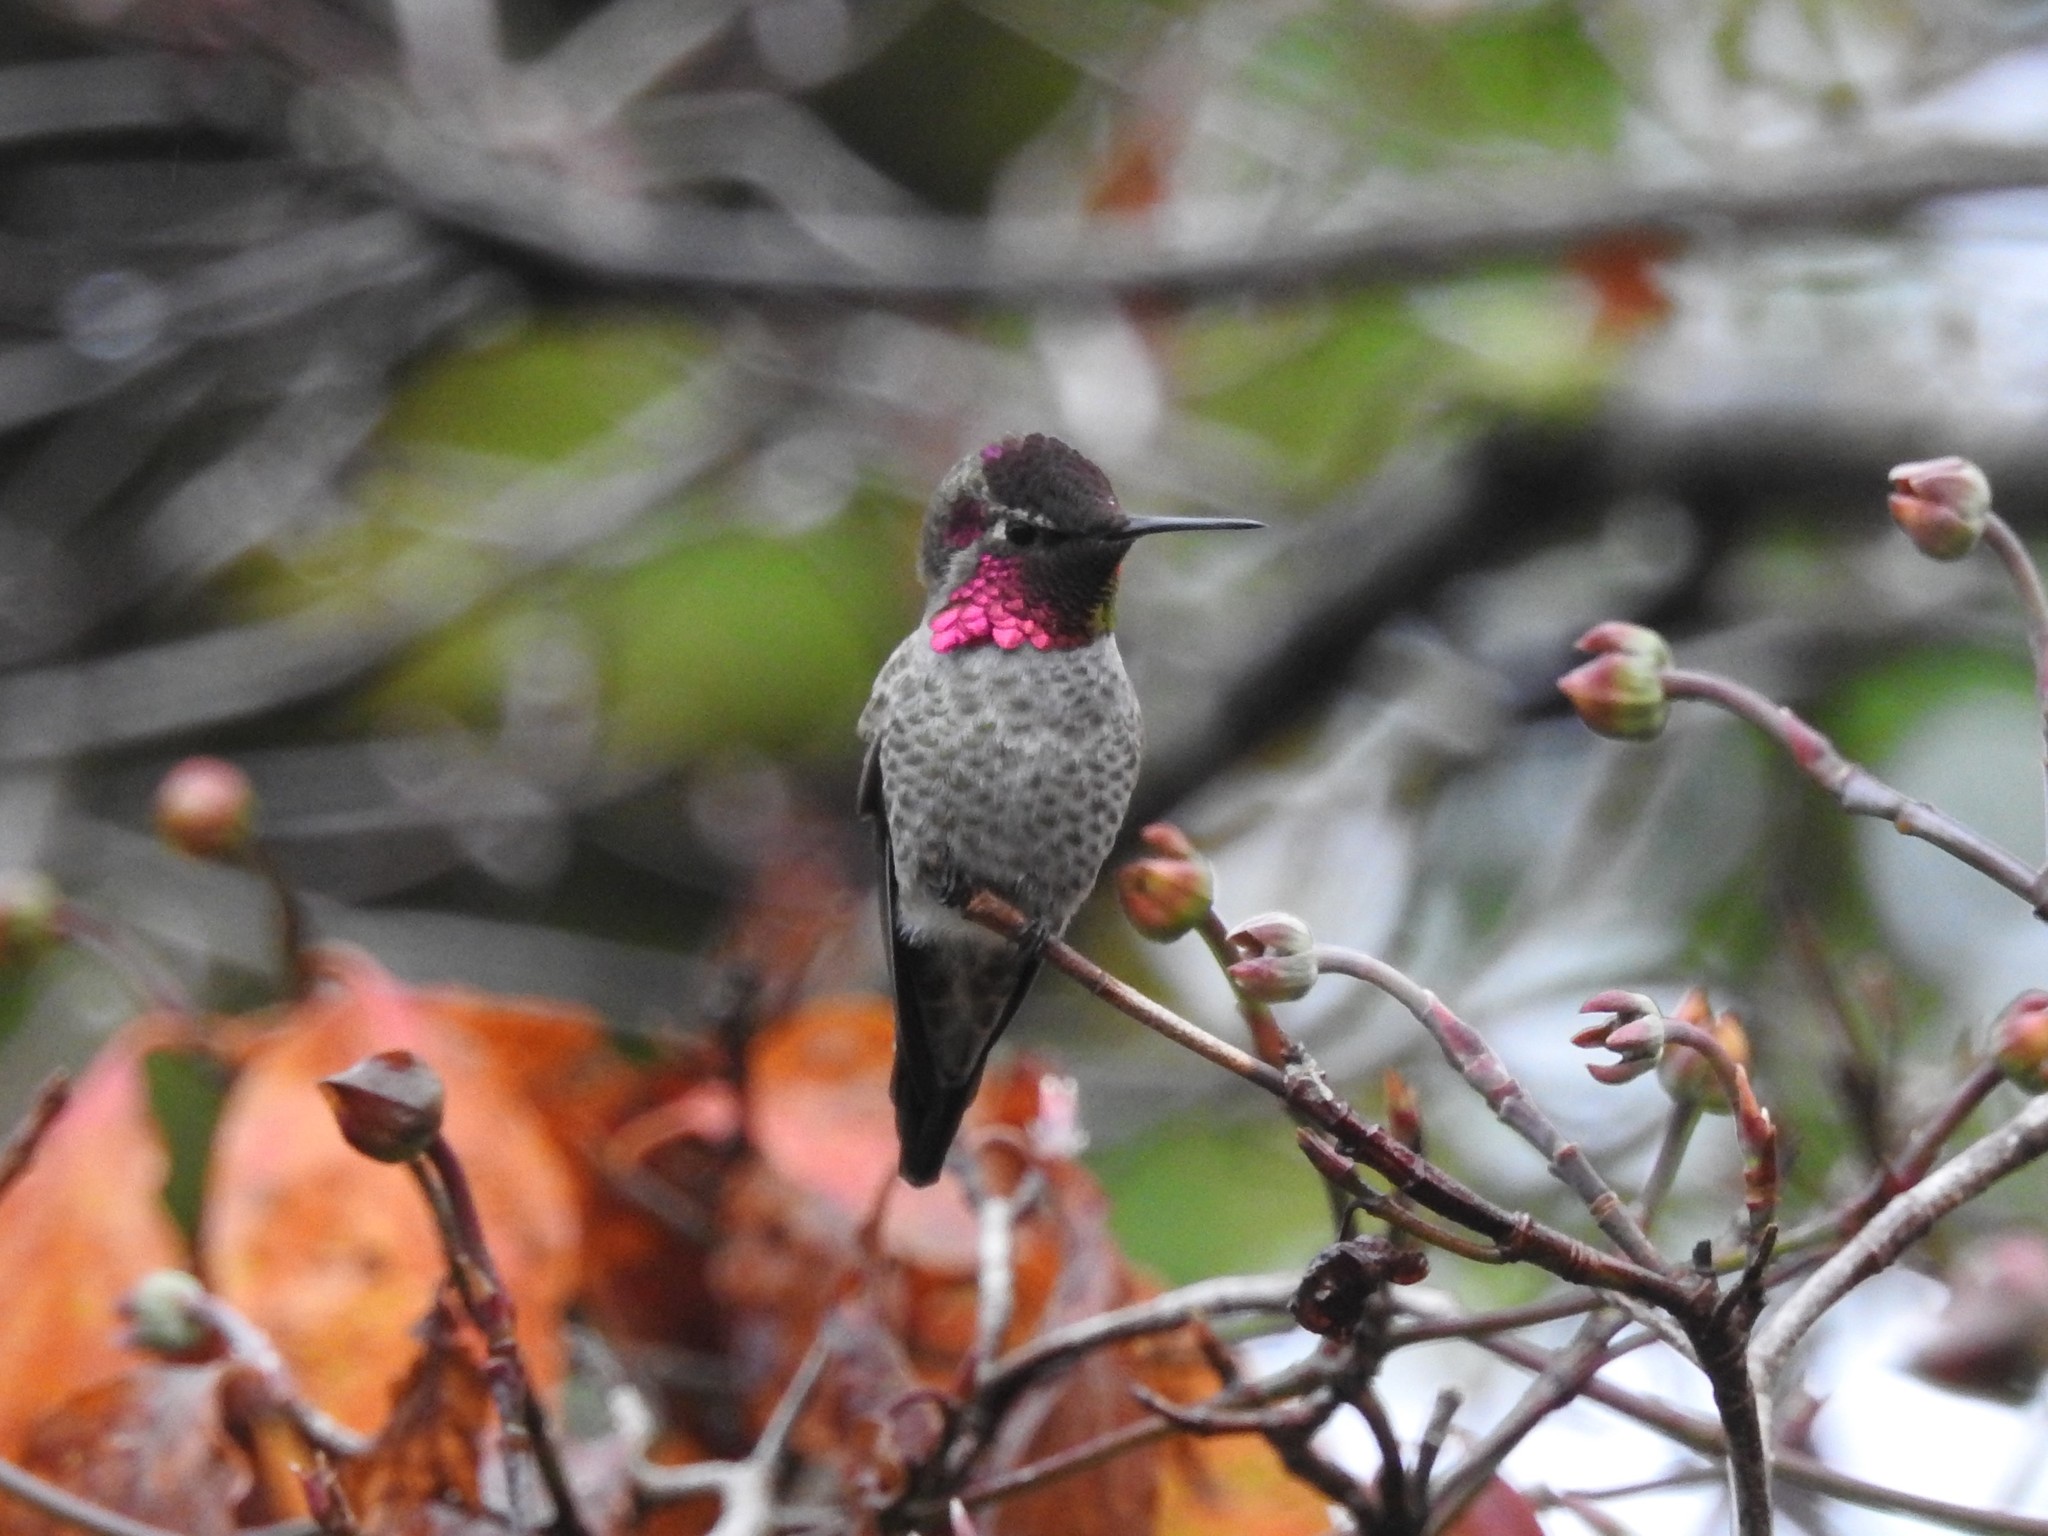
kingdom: Animalia
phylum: Chordata
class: Aves
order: Apodiformes
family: Trochilidae
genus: Calypte
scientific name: Calypte anna
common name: Anna's hummingbird
